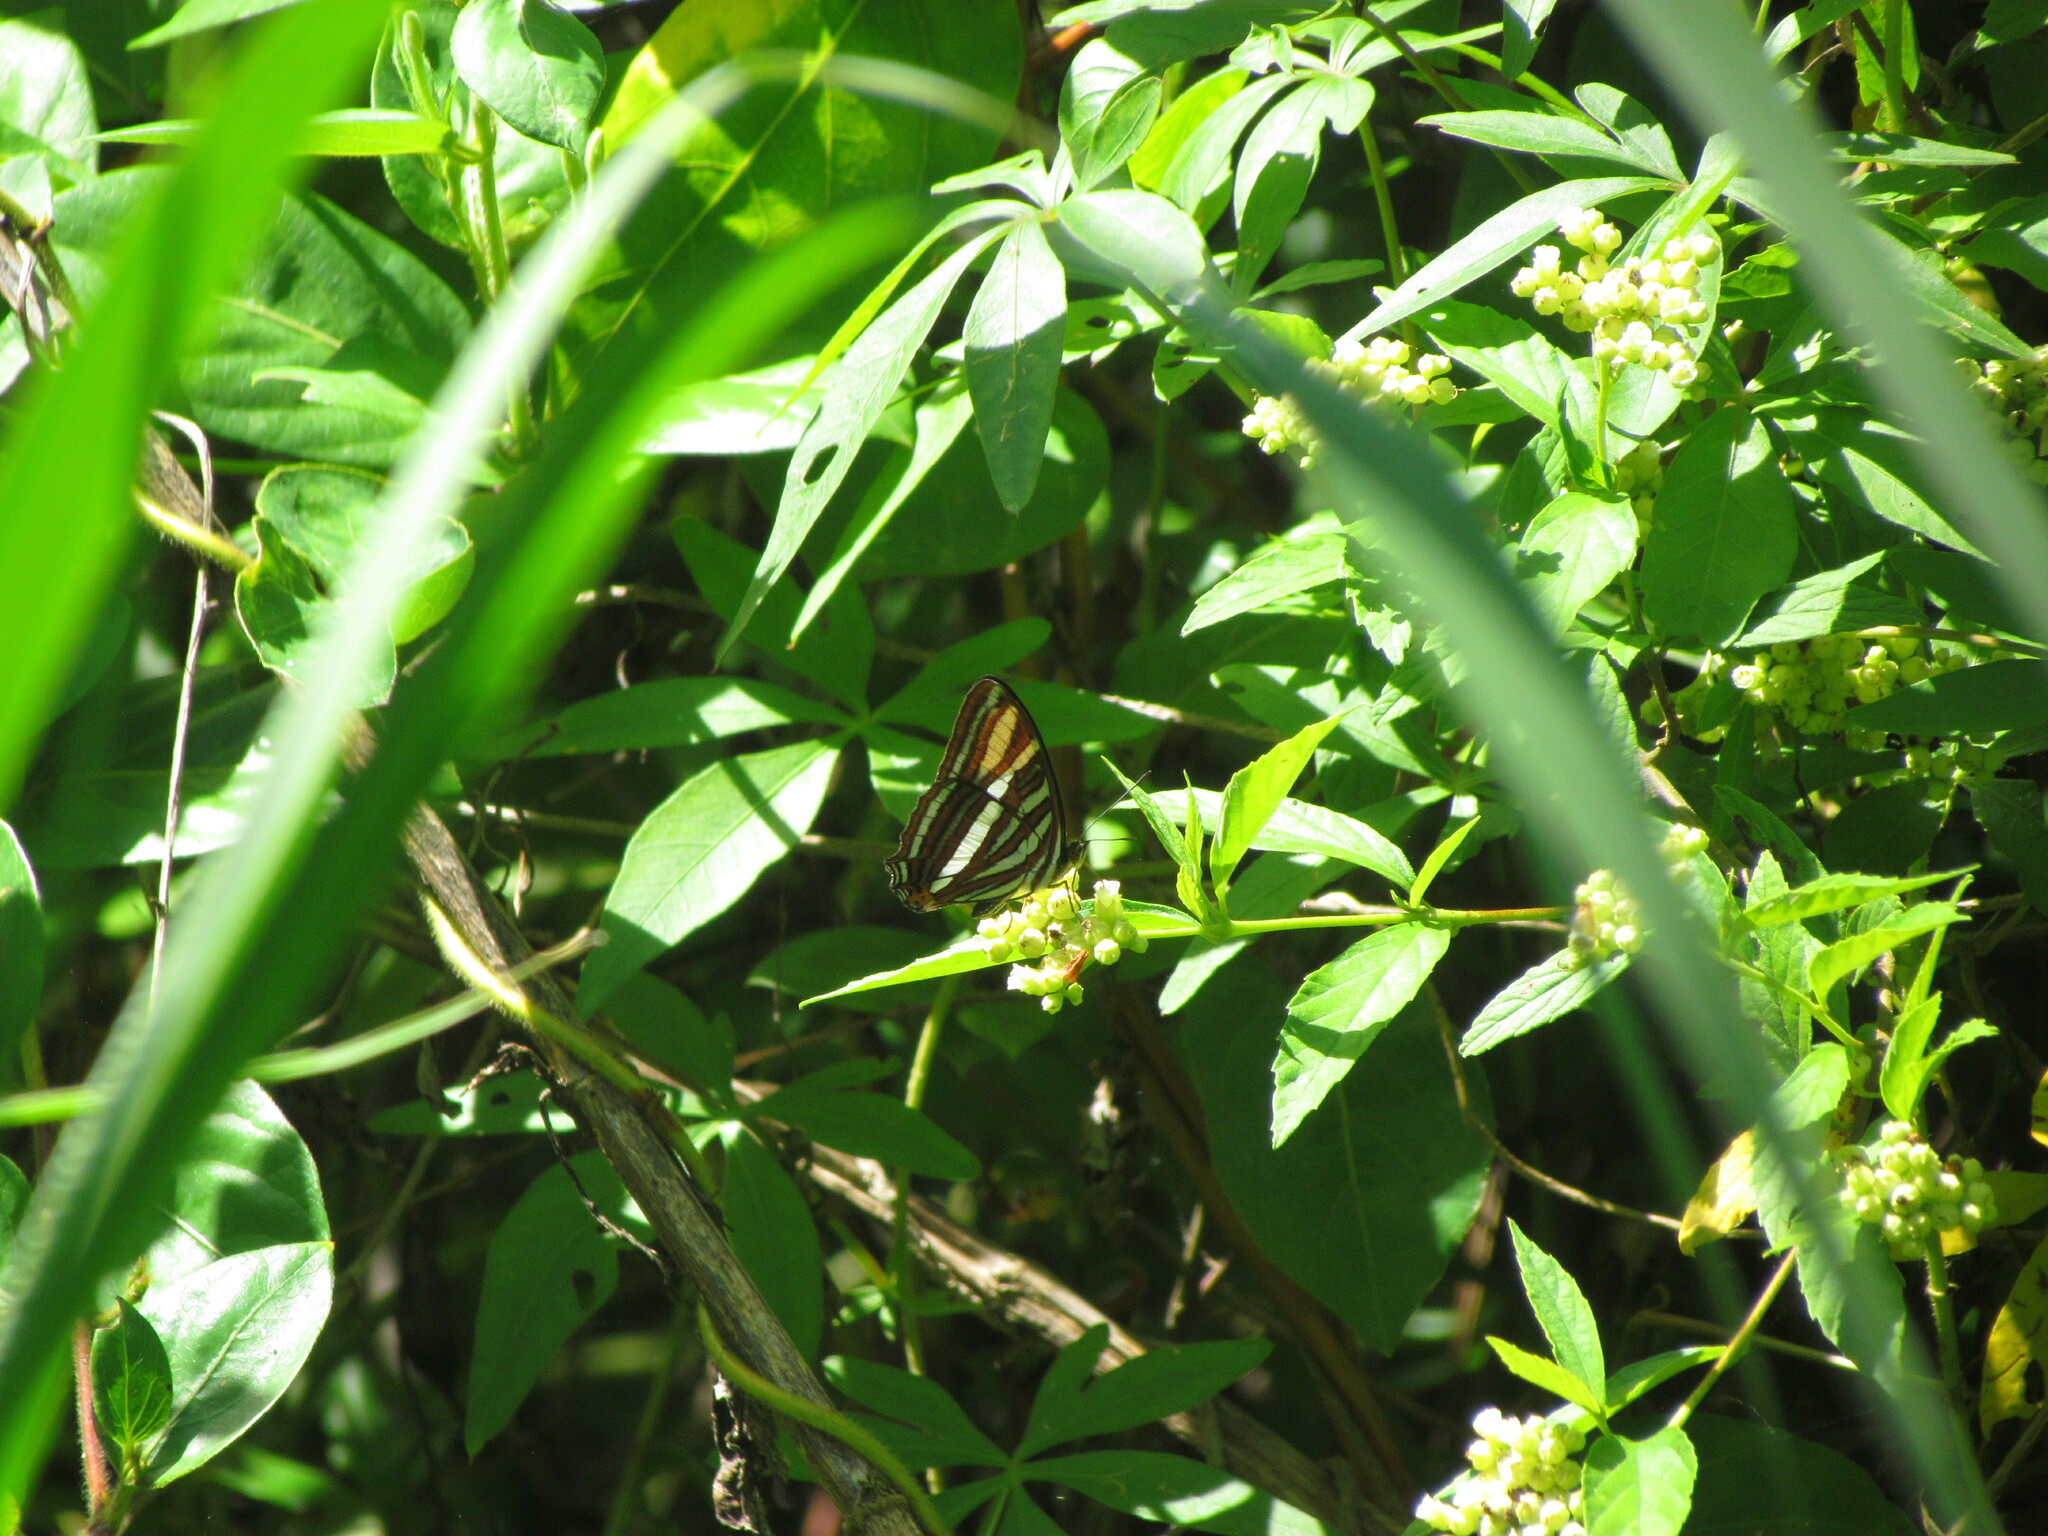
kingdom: Animalia
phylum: Arthropoda
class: Insecta
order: Lepidoptera
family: Nymphalidae
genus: Limenitis
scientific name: Limenitis syma
